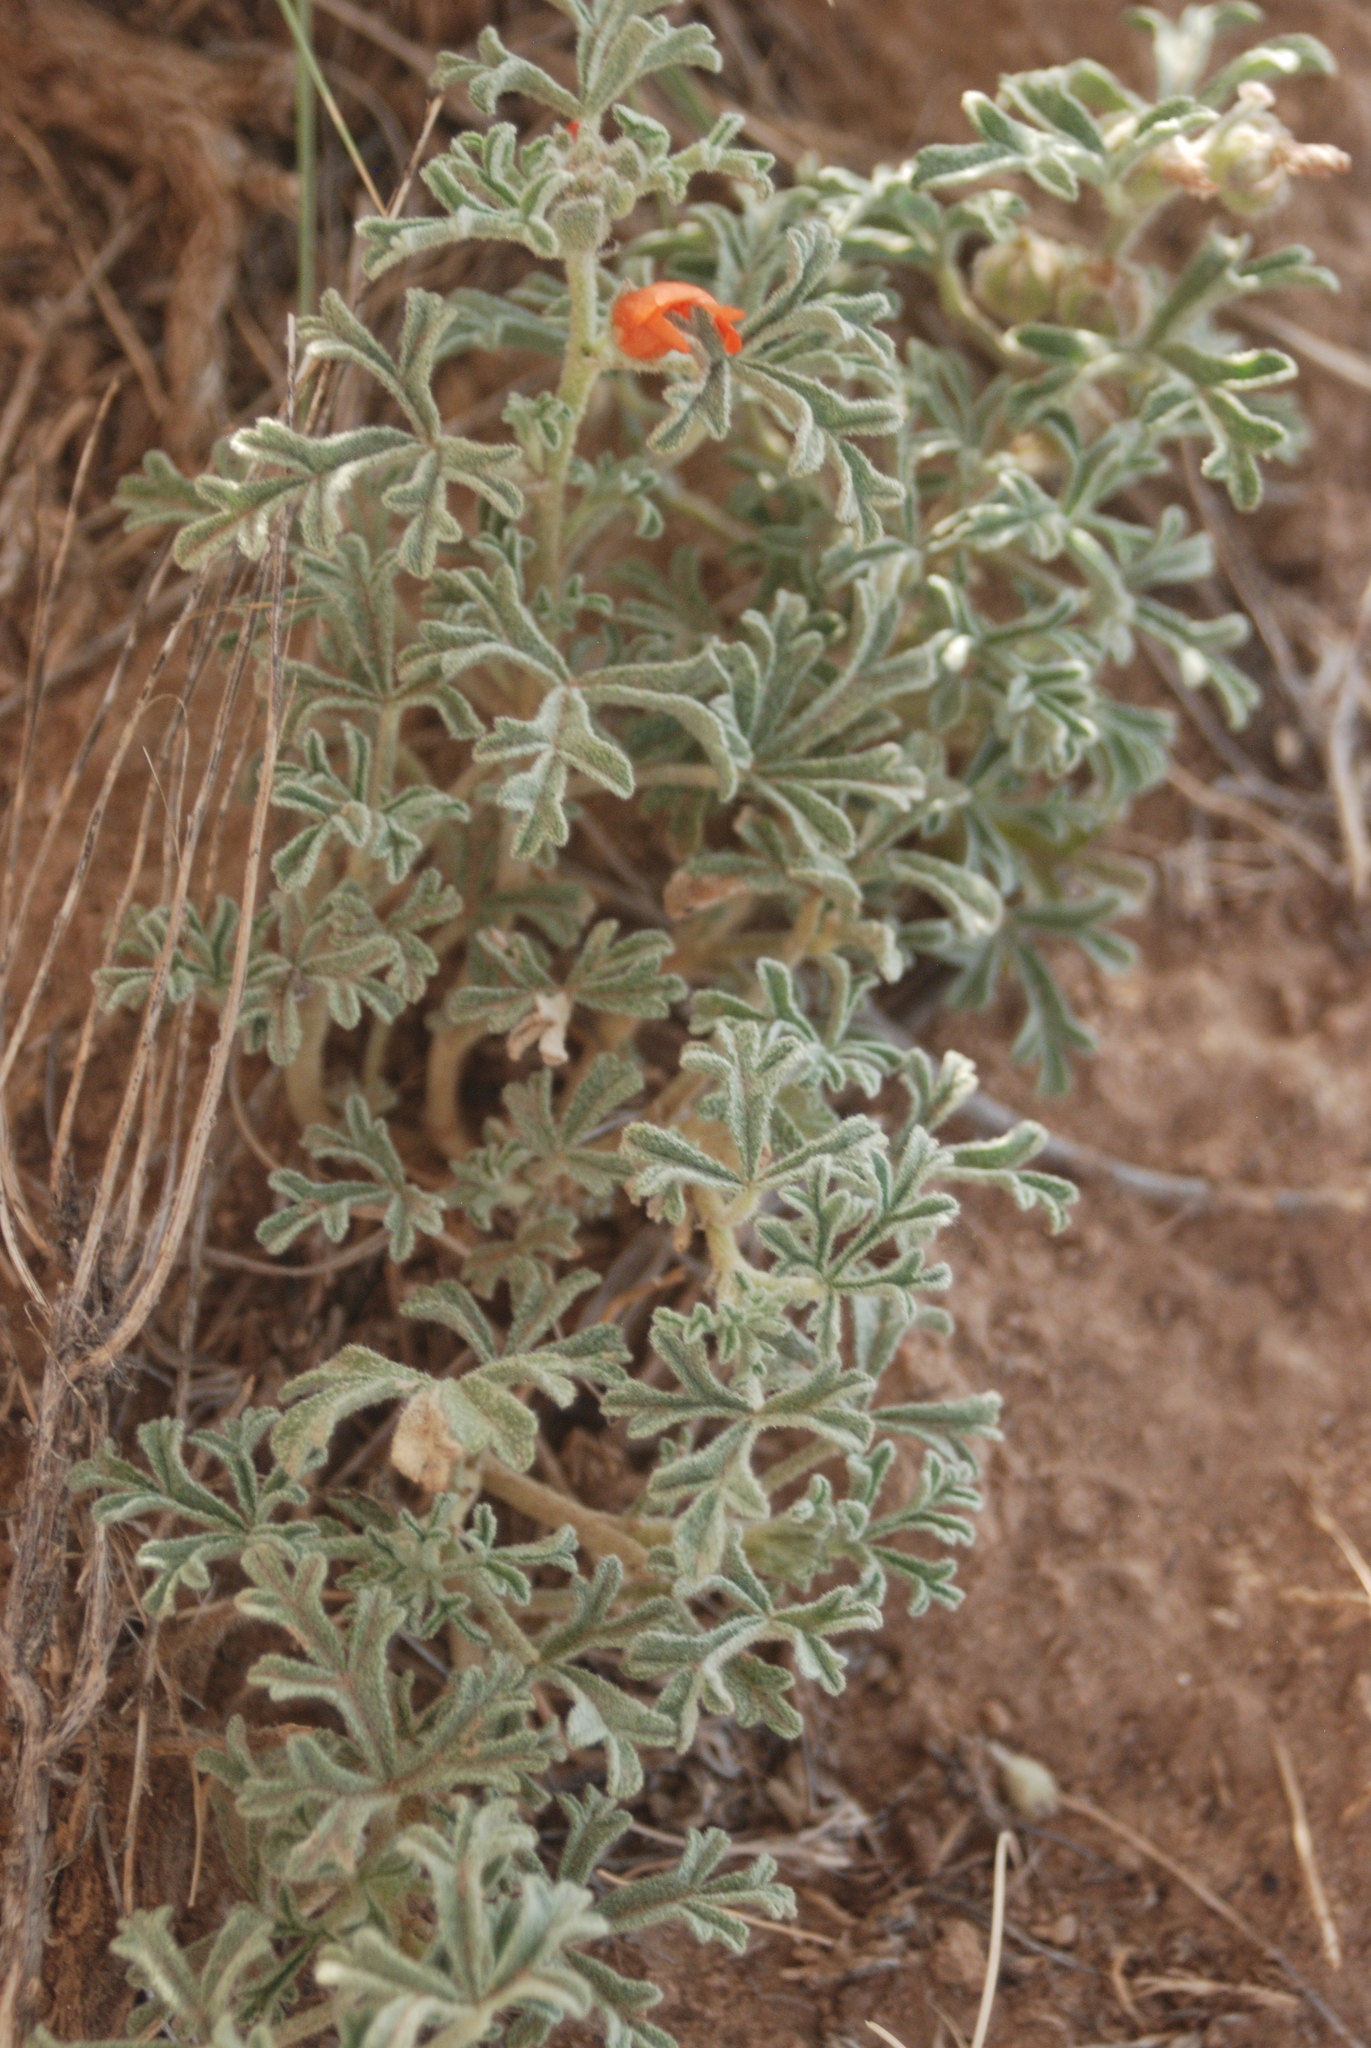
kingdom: Plantae
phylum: Tracheophyta
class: Magnoliopsida
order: Malvales
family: Malvaceae
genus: Sphaeralcea
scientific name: Sphaeralcea coccinea
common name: Moss-rose
